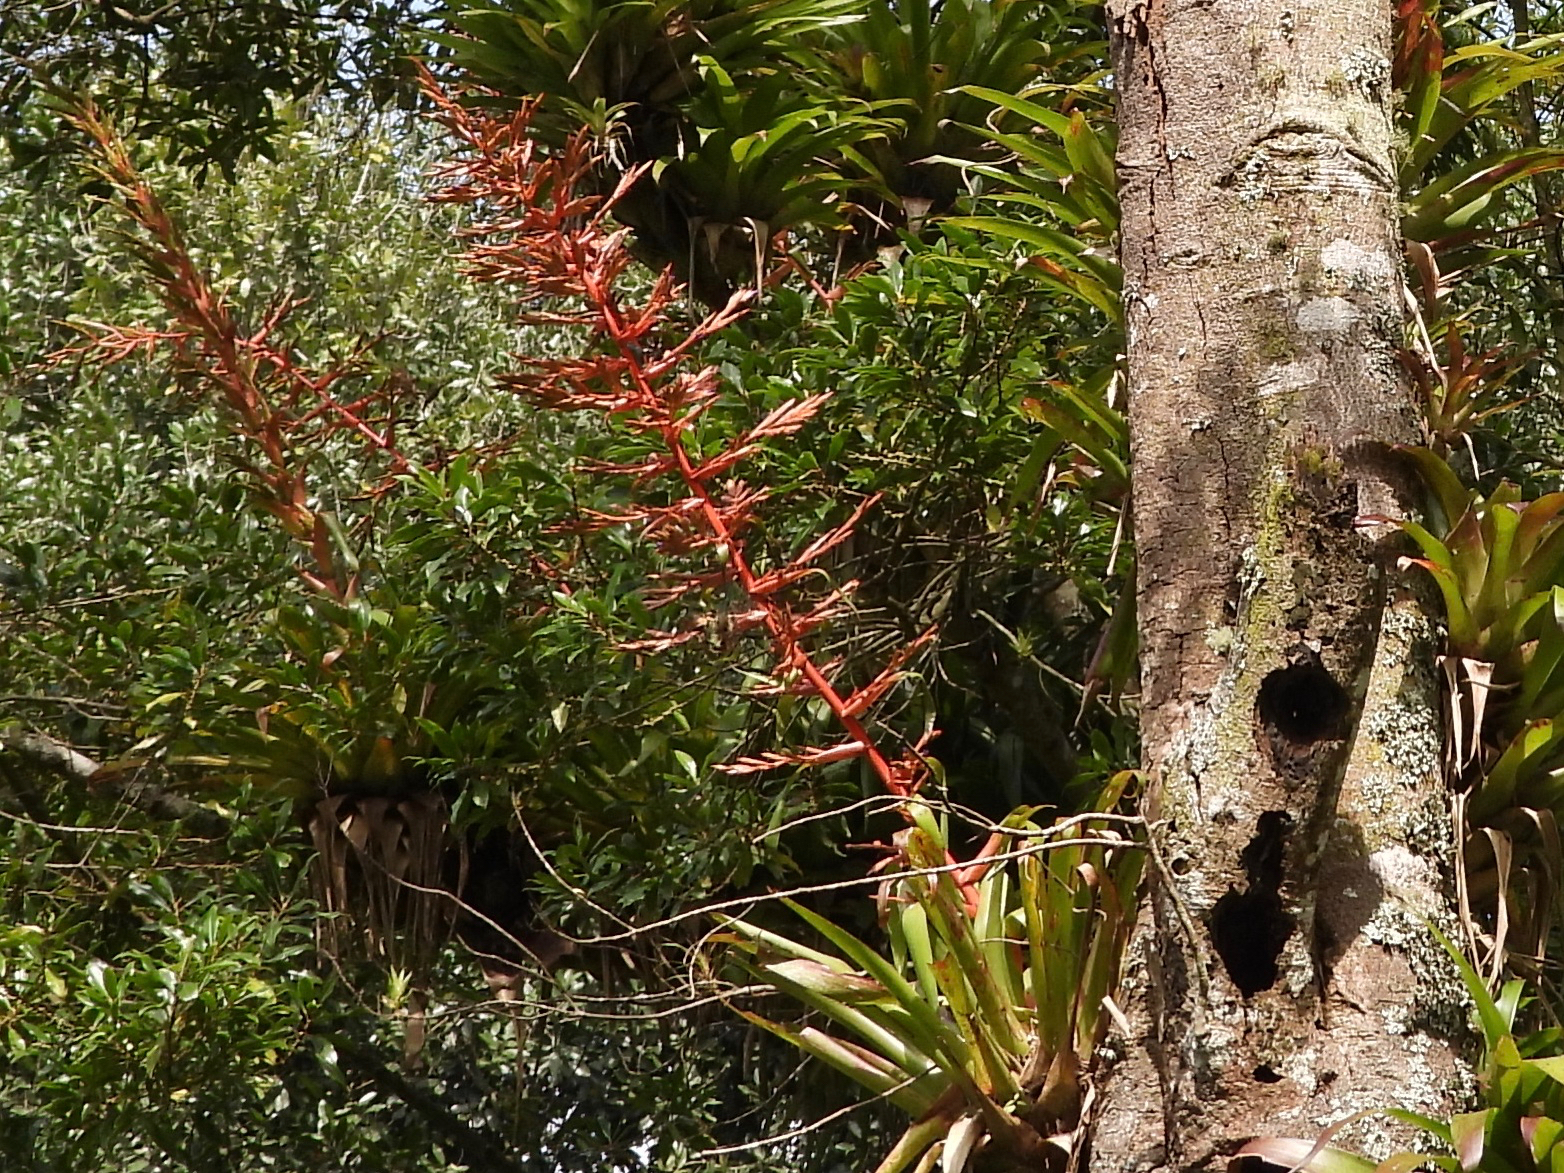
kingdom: Plantae
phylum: Tracheophyta
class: Liliopsida
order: Poales
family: Bromeliaceae
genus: Tillandsia
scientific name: Tillandsia guatemalensis
